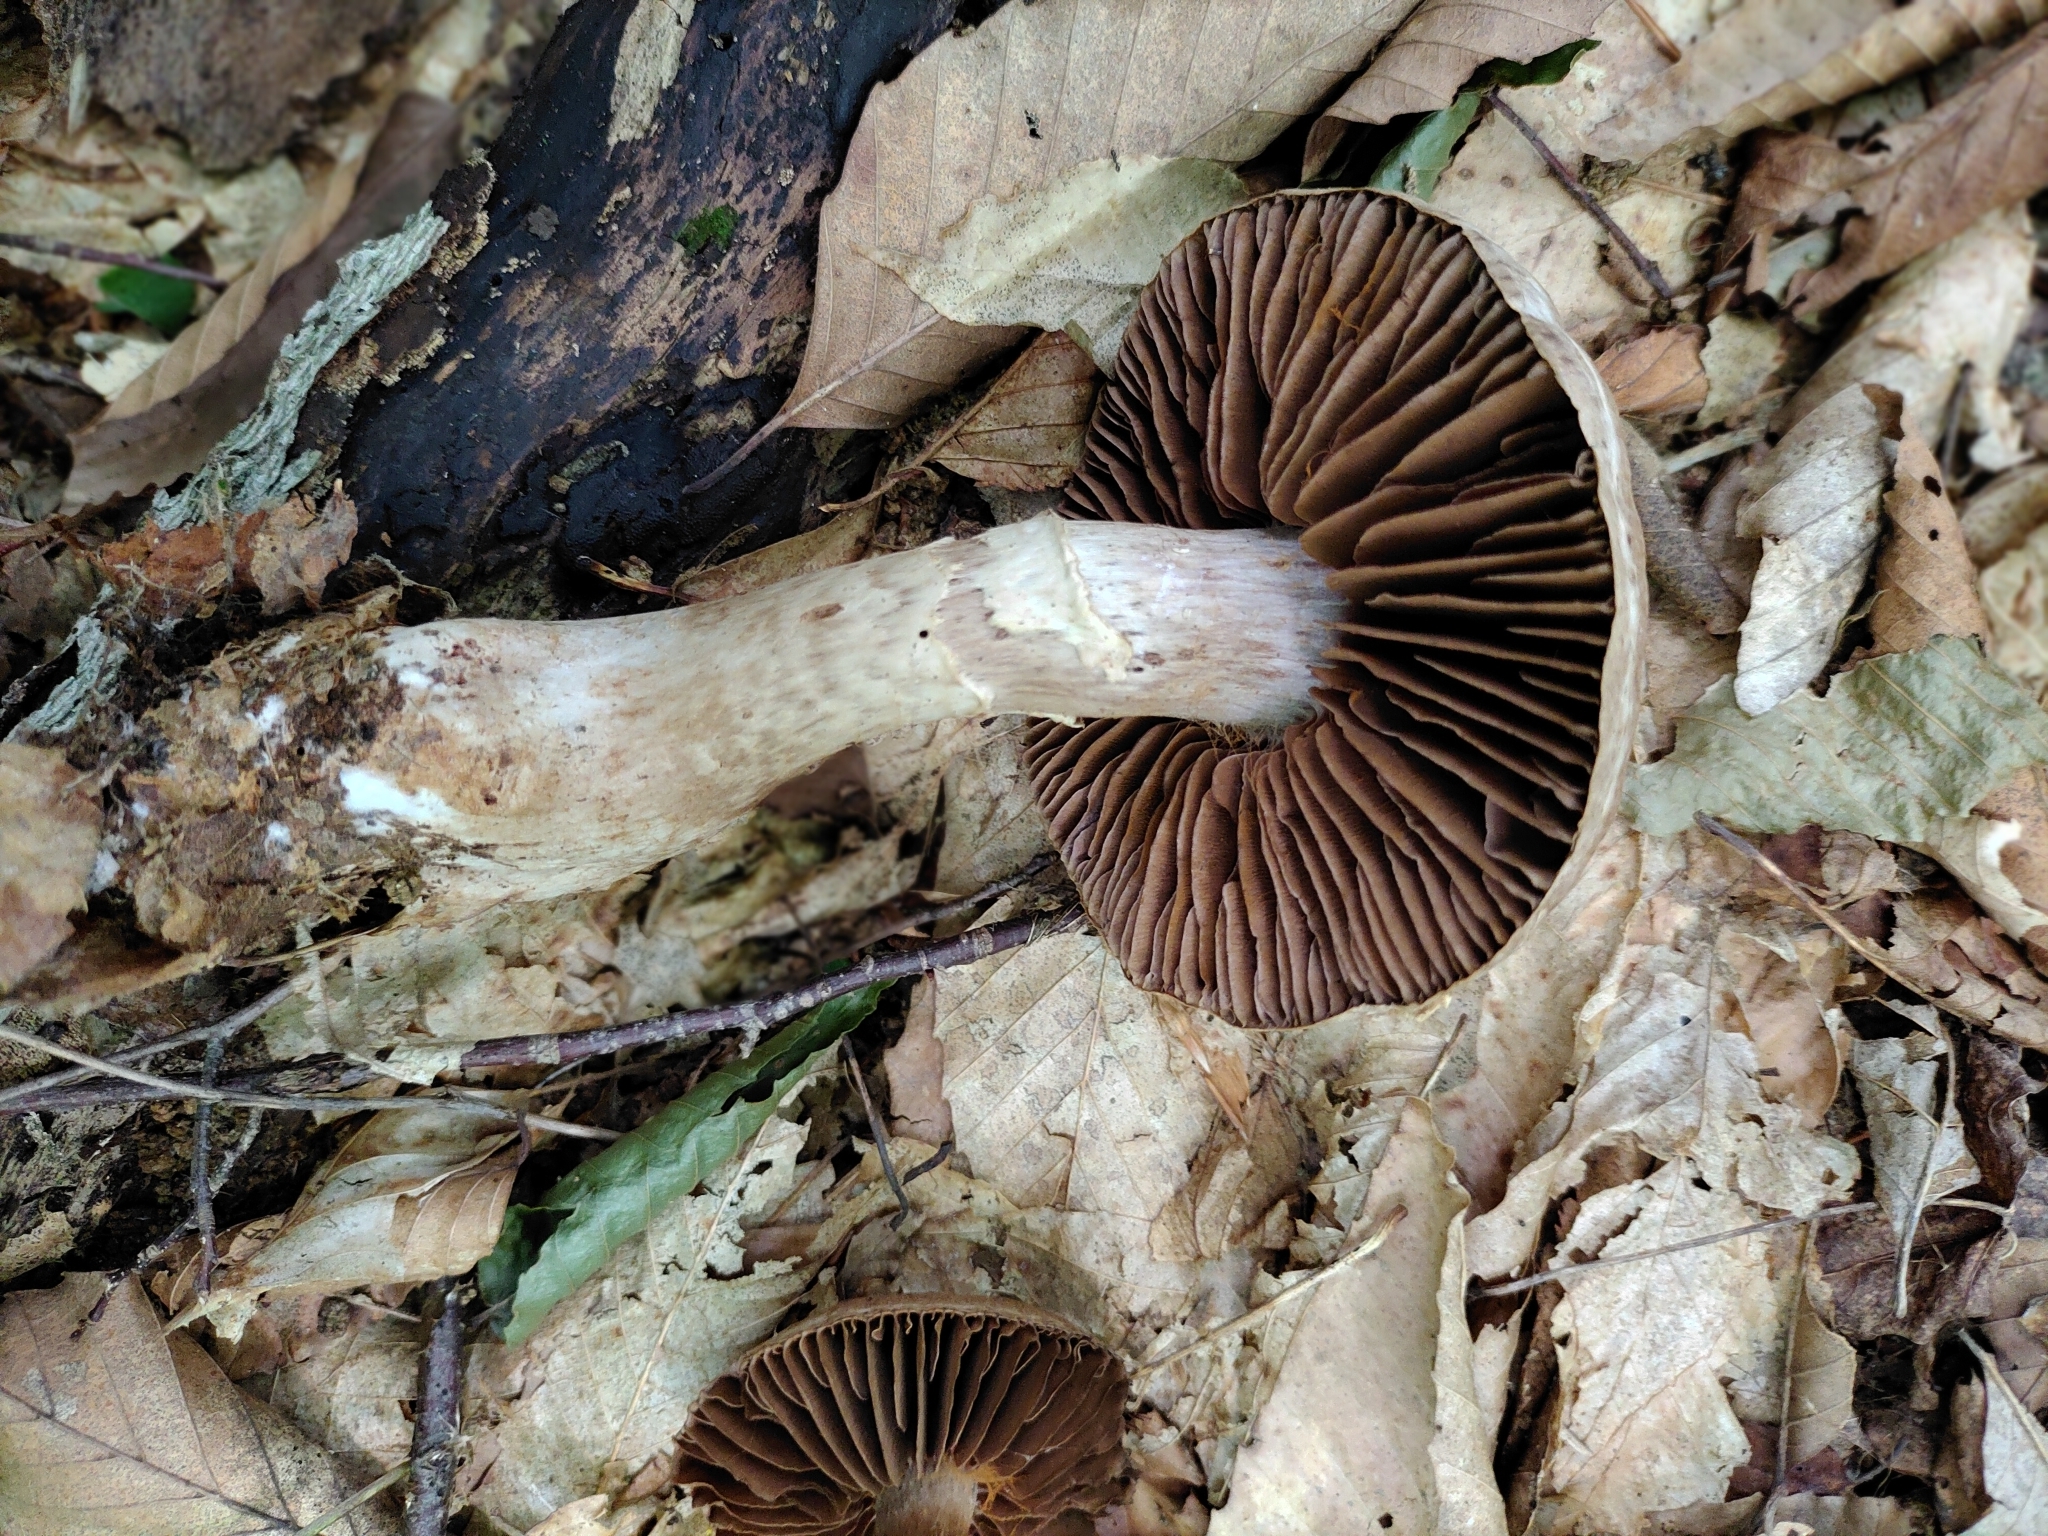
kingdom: Fungi
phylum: Basidiomycota
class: Agaricomycetes
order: Agaricales
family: Cortinariaceae
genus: Cortinarius
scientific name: Cortinarius torvus
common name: Stocking webcap
